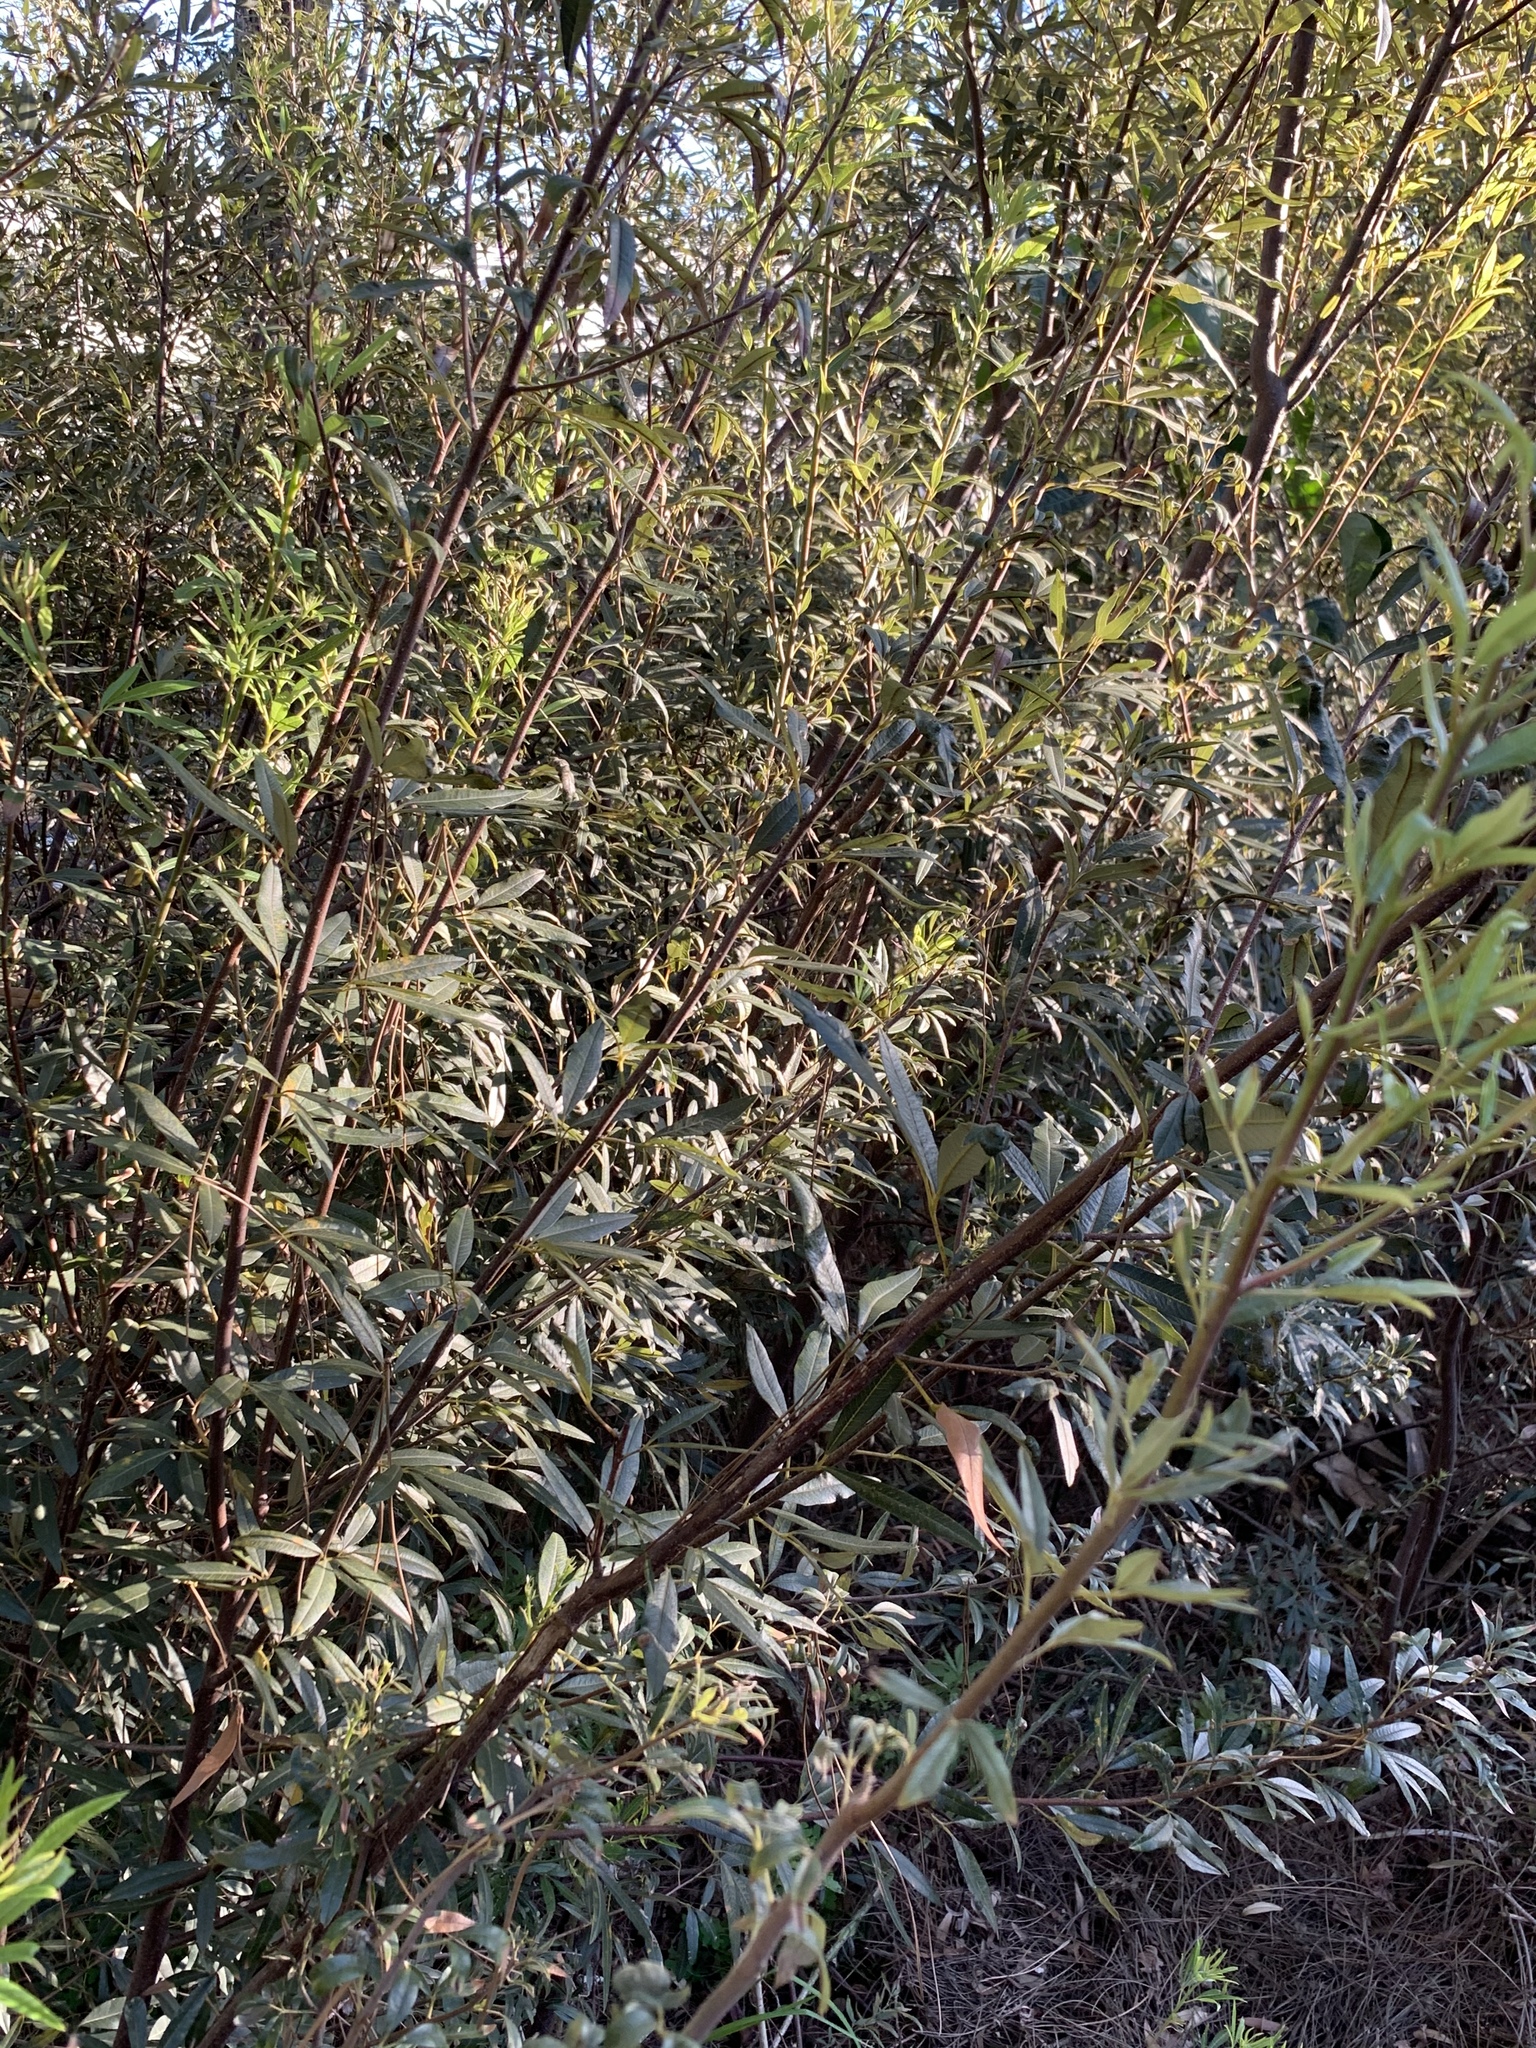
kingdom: Plantae
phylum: Tracheophyta
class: Magnoliopsida
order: Sapindales
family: Anacardiaceae
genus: Searsia
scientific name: Searsia angustifolia
